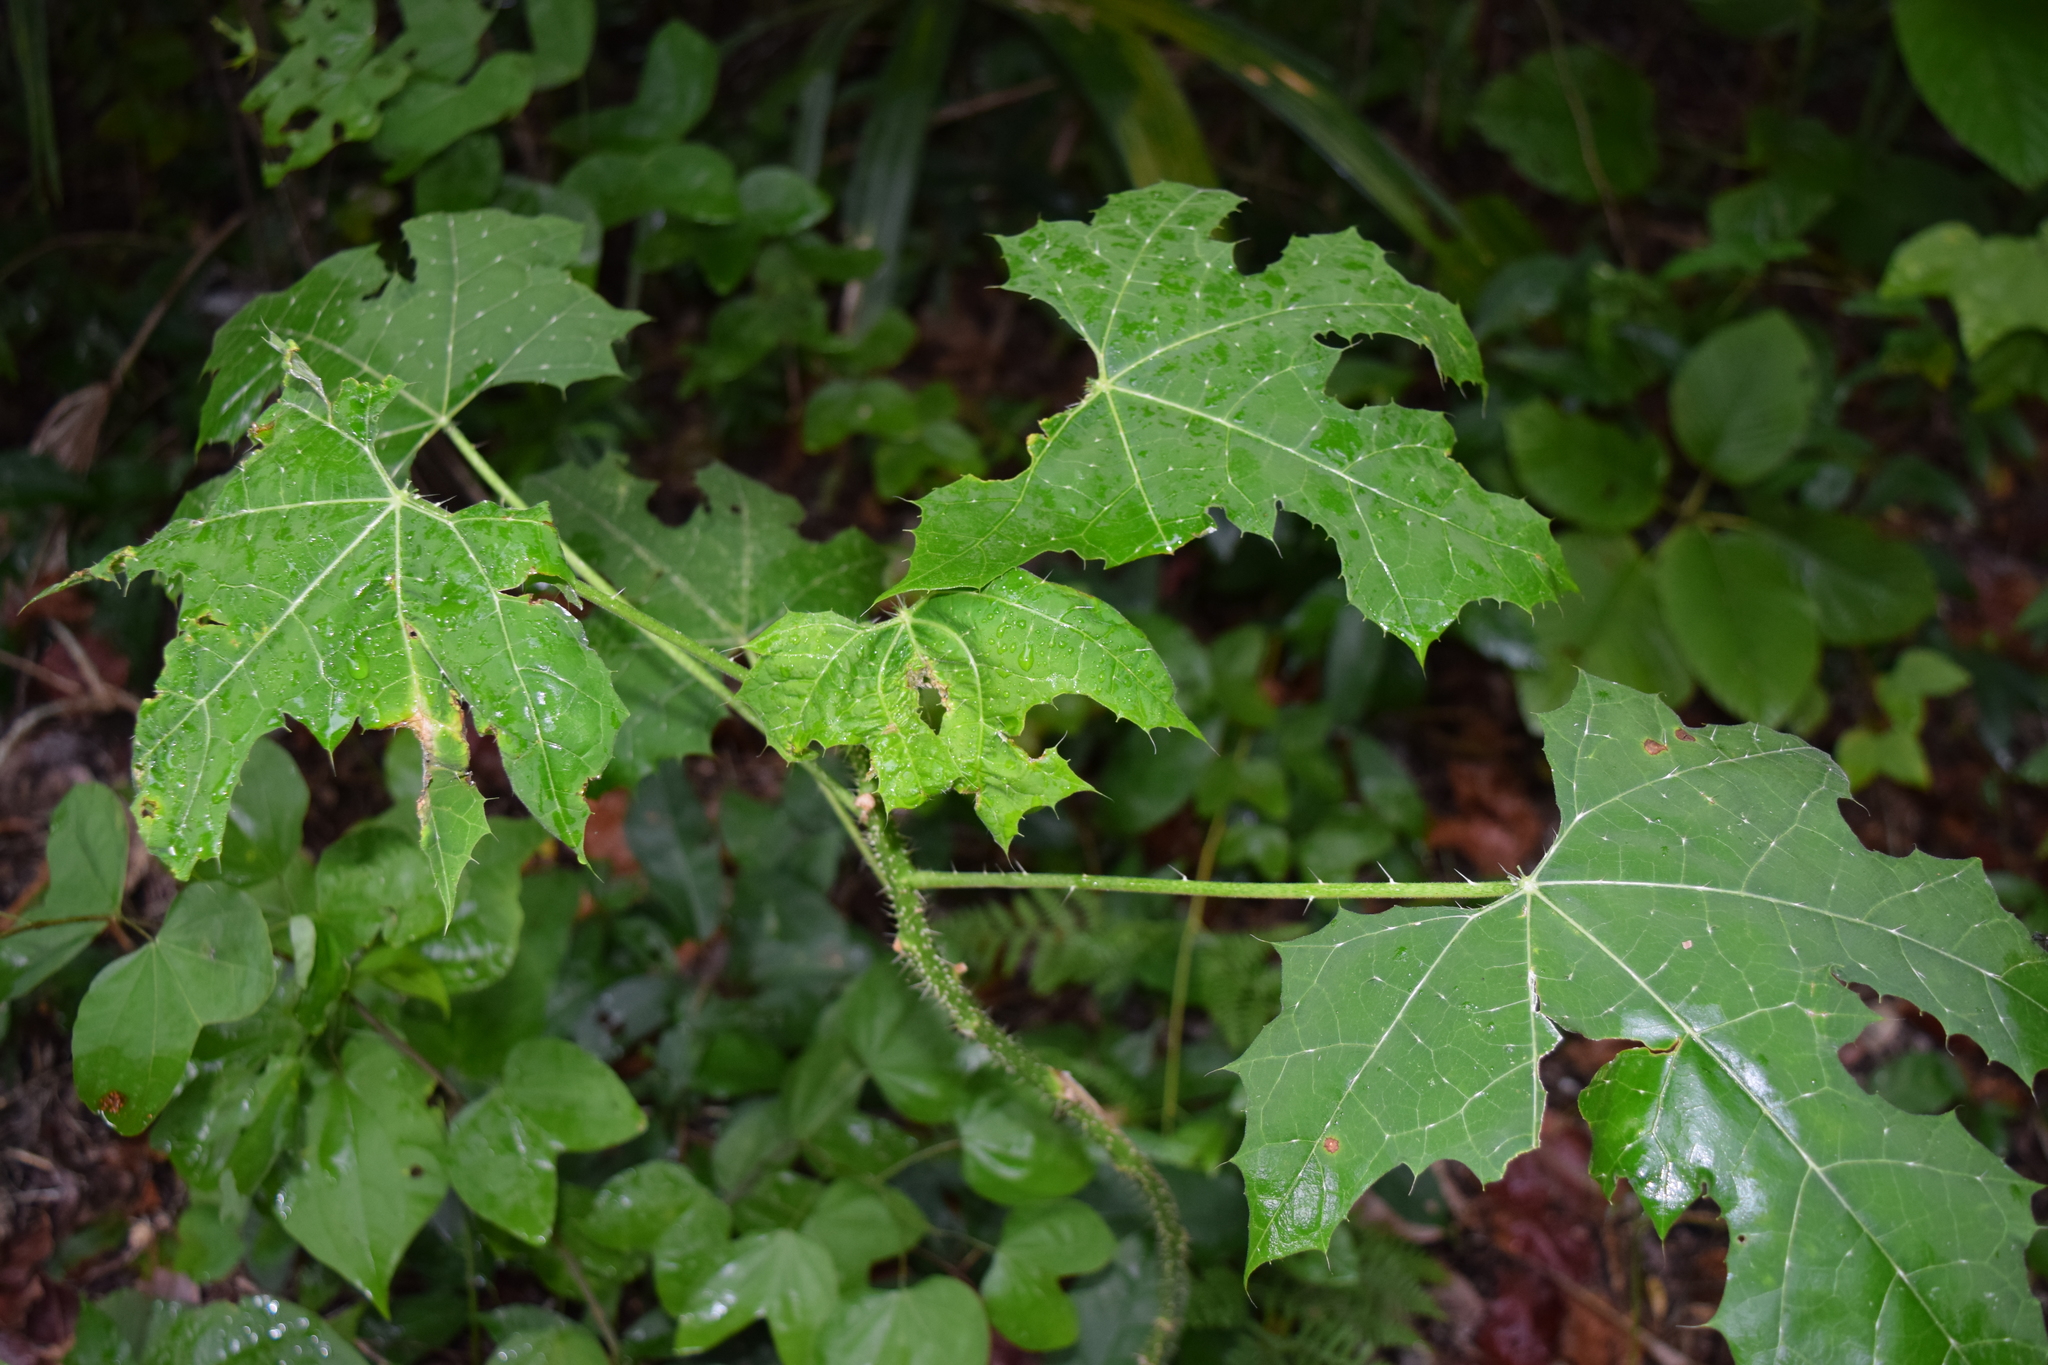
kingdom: Plantae
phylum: Tracheophyta
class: Magnoliopsida
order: Malpighiales
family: Euphorbiaceae
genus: Cnidoscolus
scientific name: Cnidoscolus souzae
